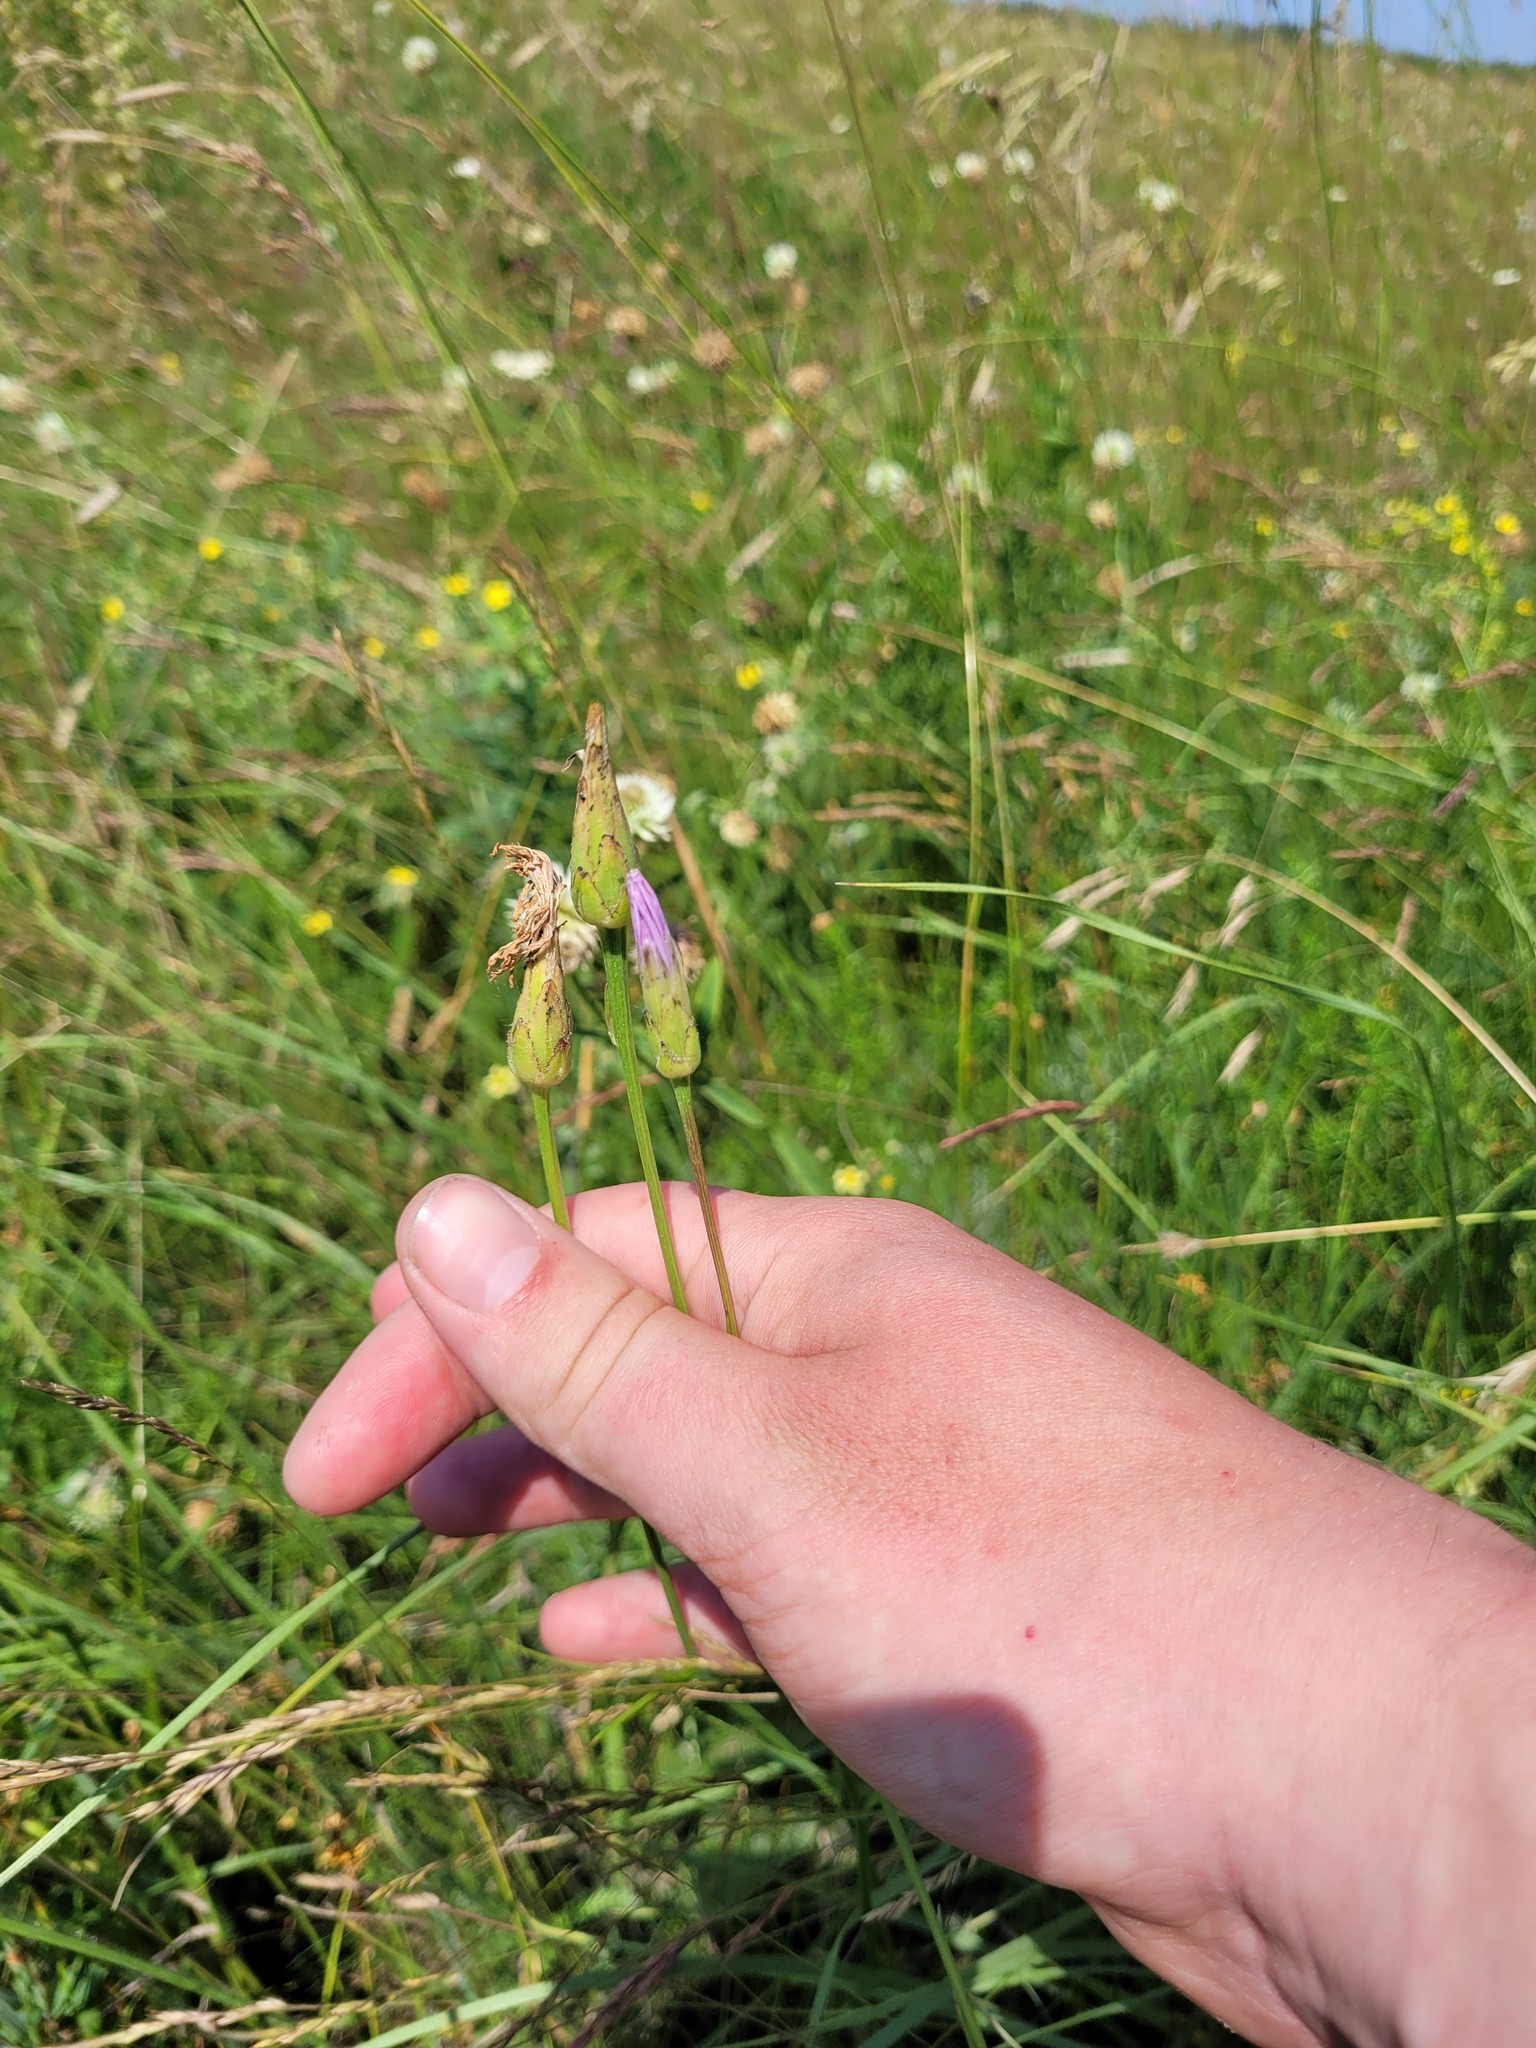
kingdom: Plantae
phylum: Tracheophyta
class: Magnoliopsida
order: Asterales
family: Asteraceae
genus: Scorzonera
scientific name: Scorzonera purpurea
